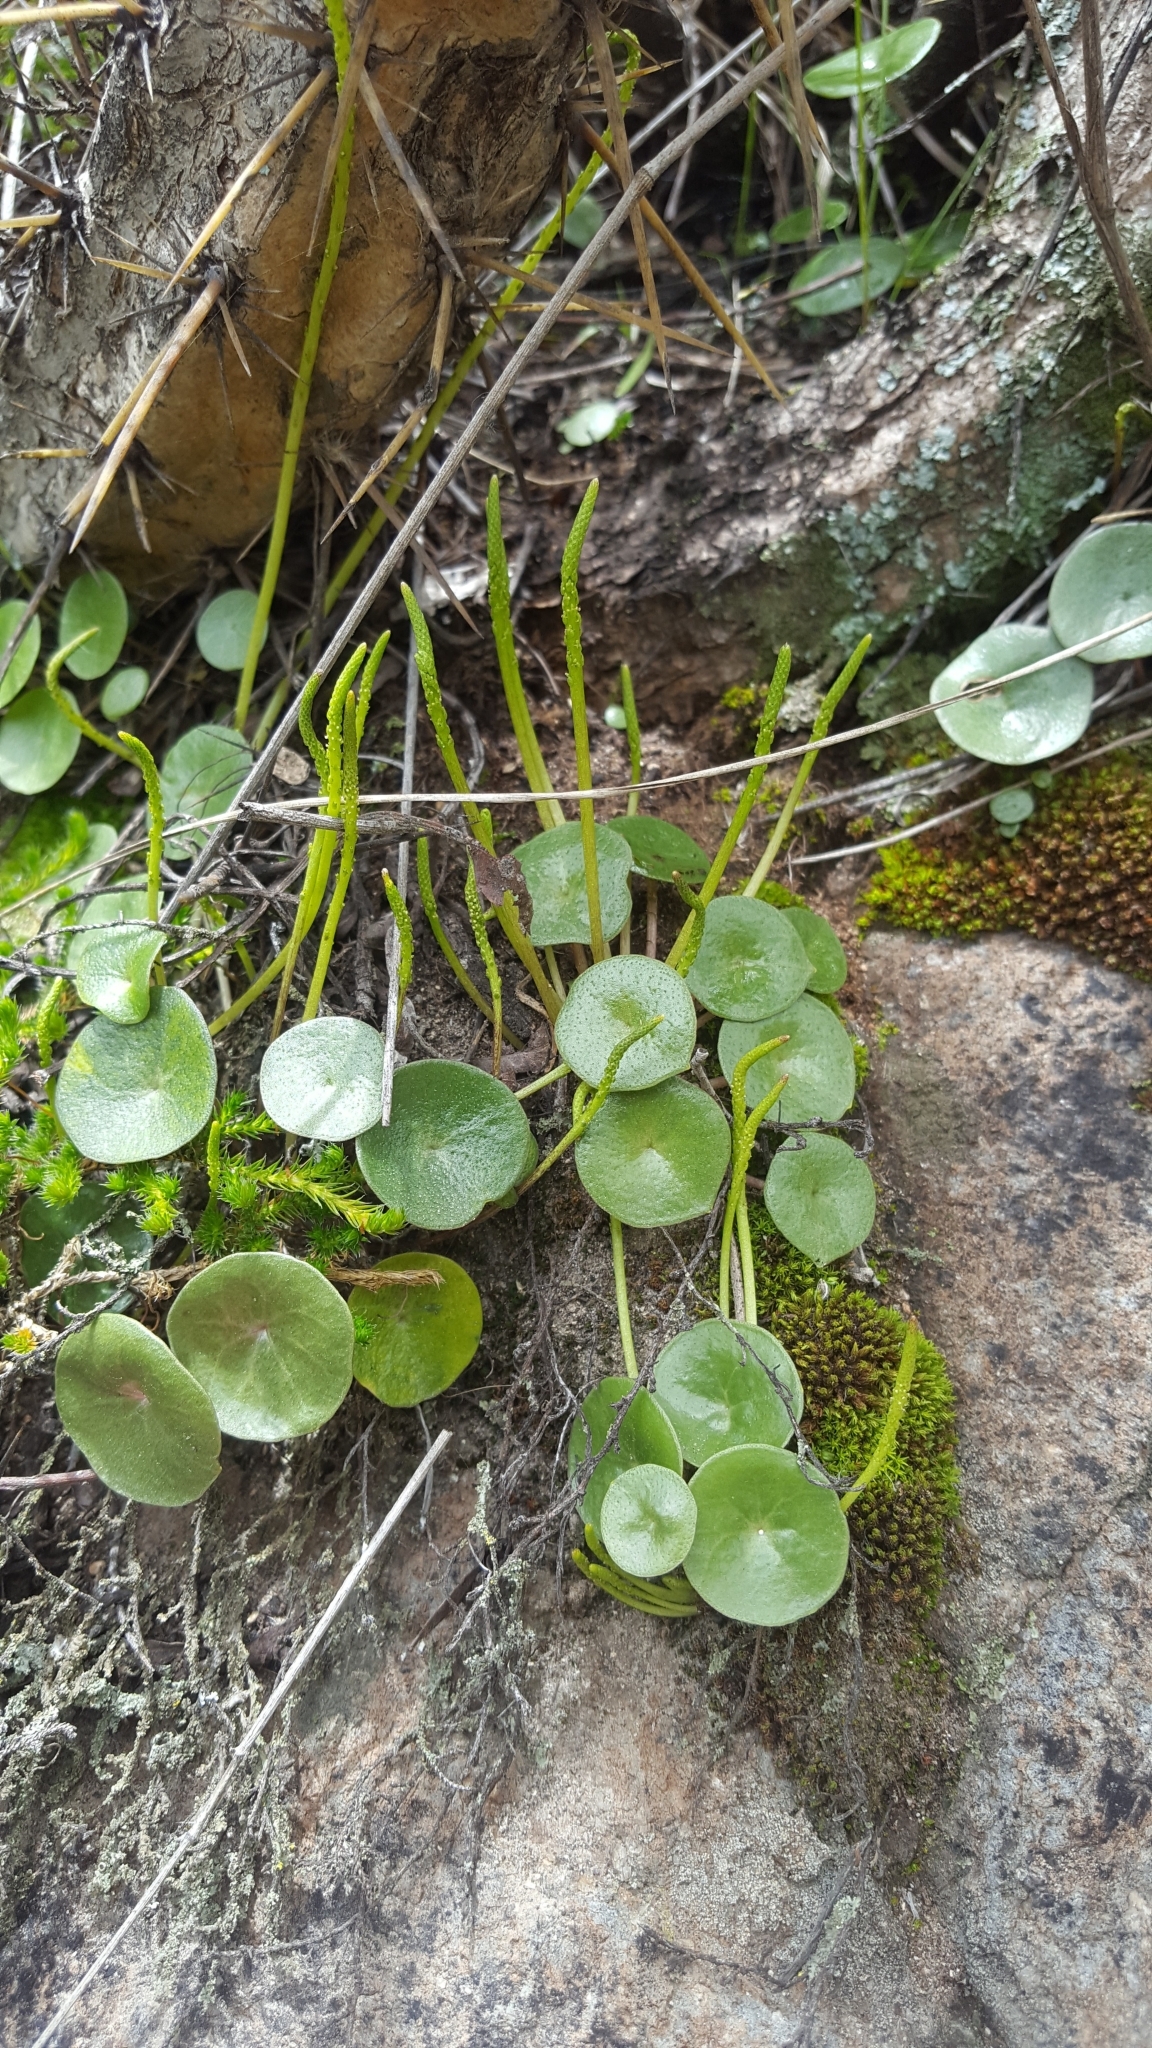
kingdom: Plantae
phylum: Tracheophyta
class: Magnoliopsida
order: Piperales
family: Piperaceae
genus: Peperomia
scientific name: Peperomia bracteata
